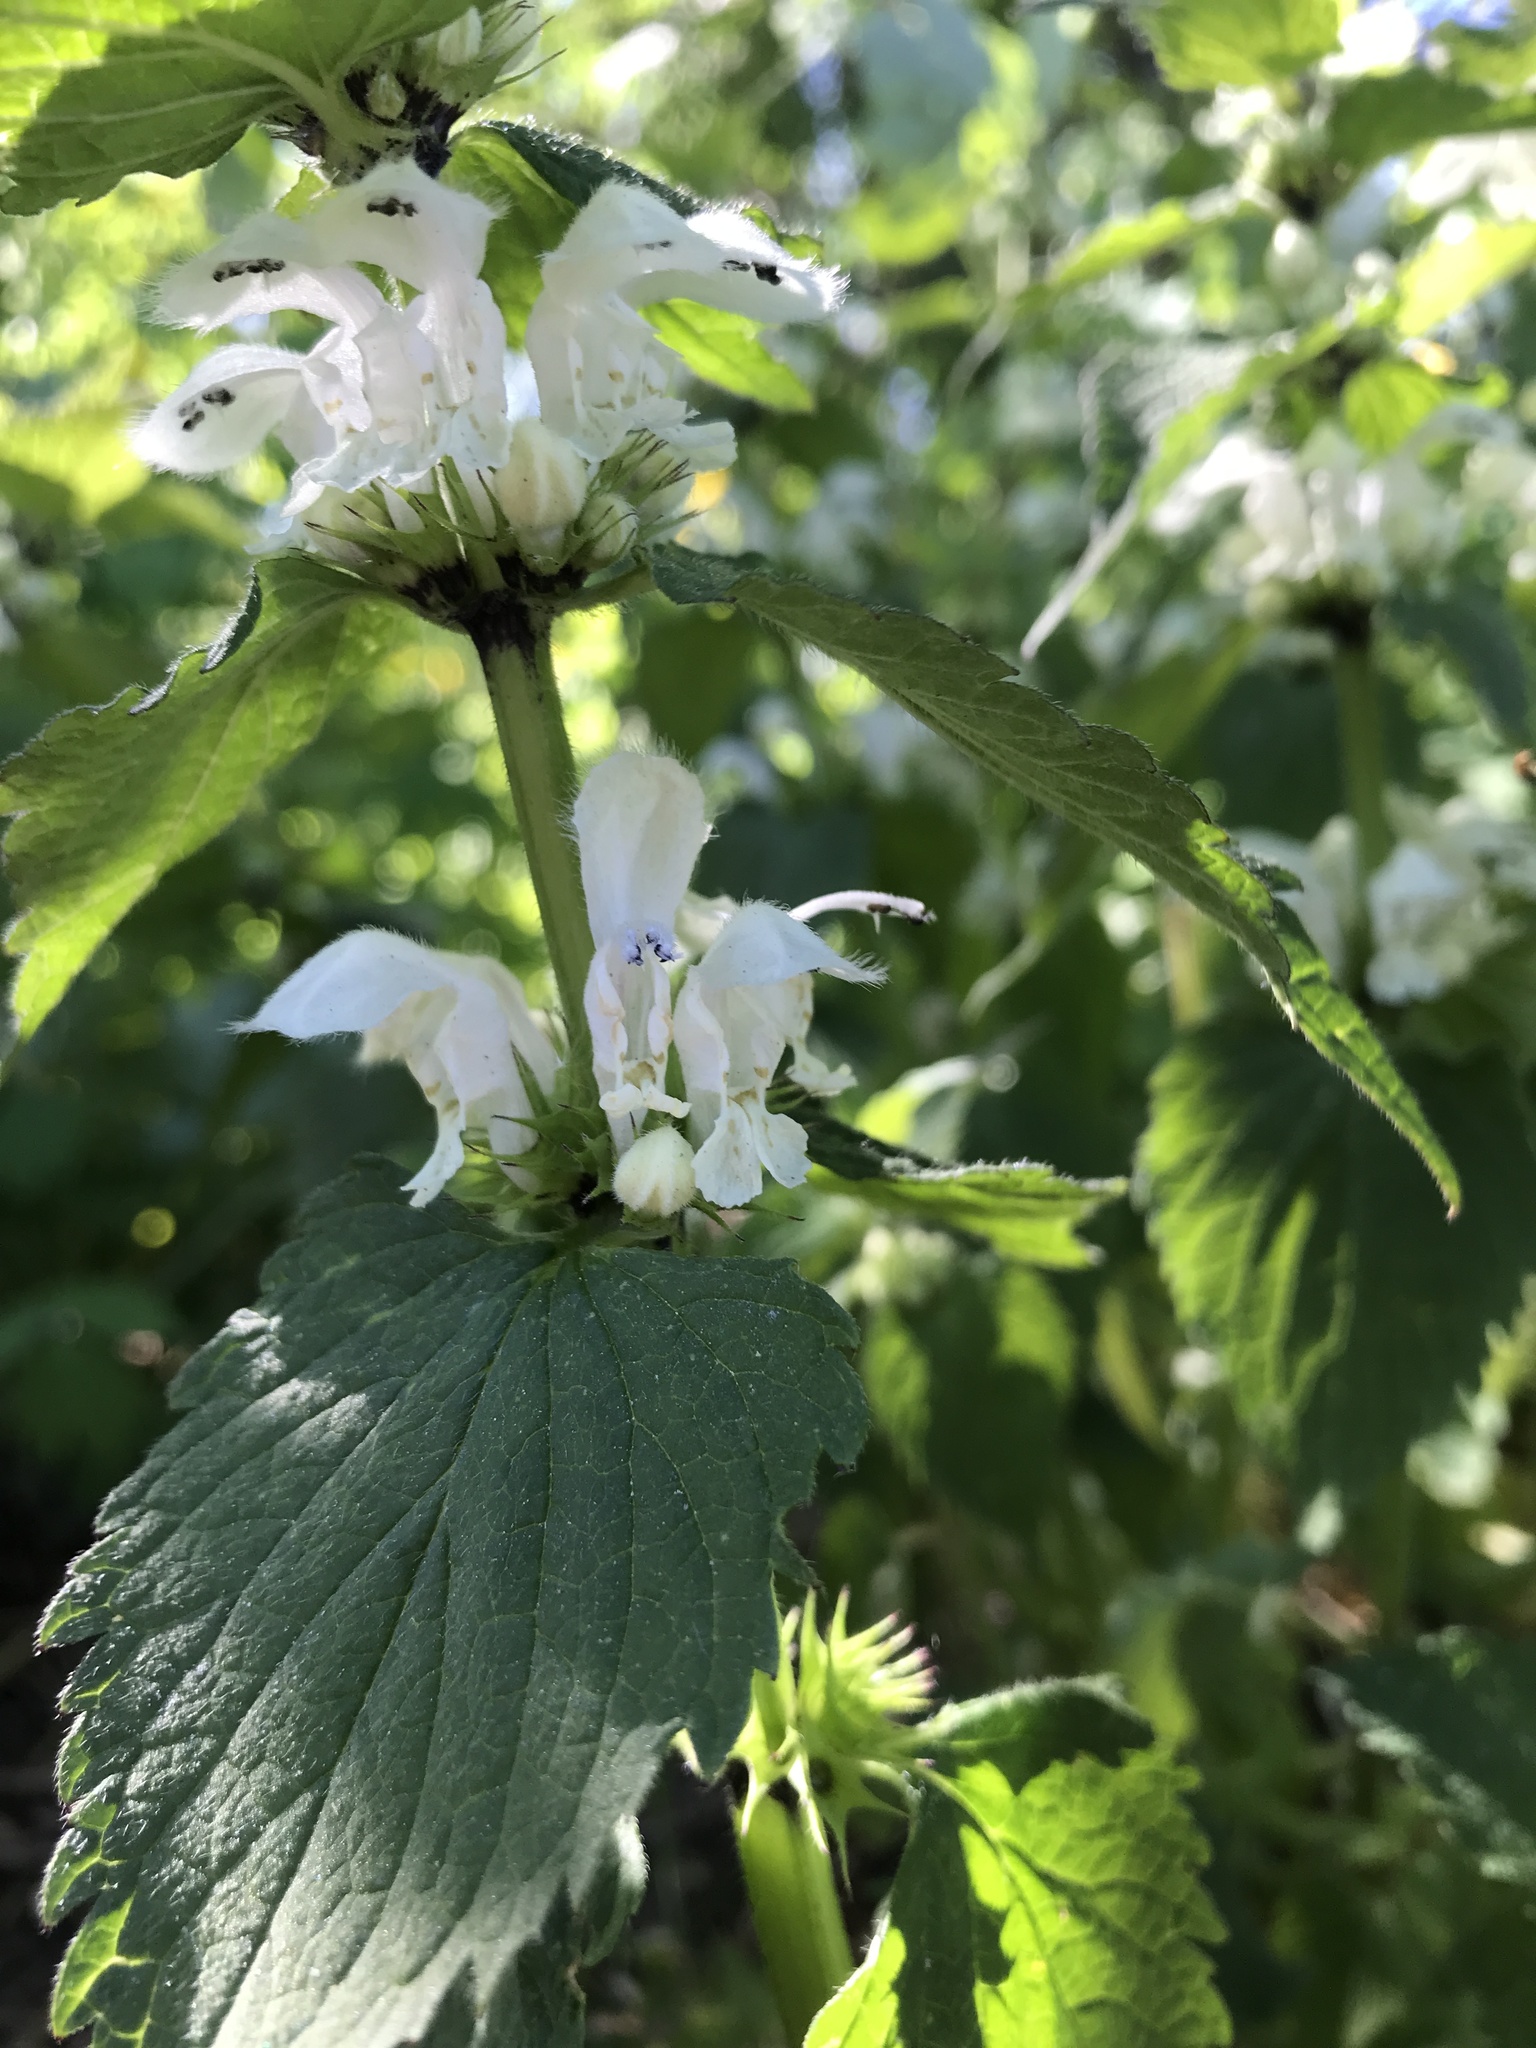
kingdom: Plantae
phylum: Tracheophyta
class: Magnoliopsida
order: Lamiales
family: Lamiaceae
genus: Lamium
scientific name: Lamium album
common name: White dead-nettle
